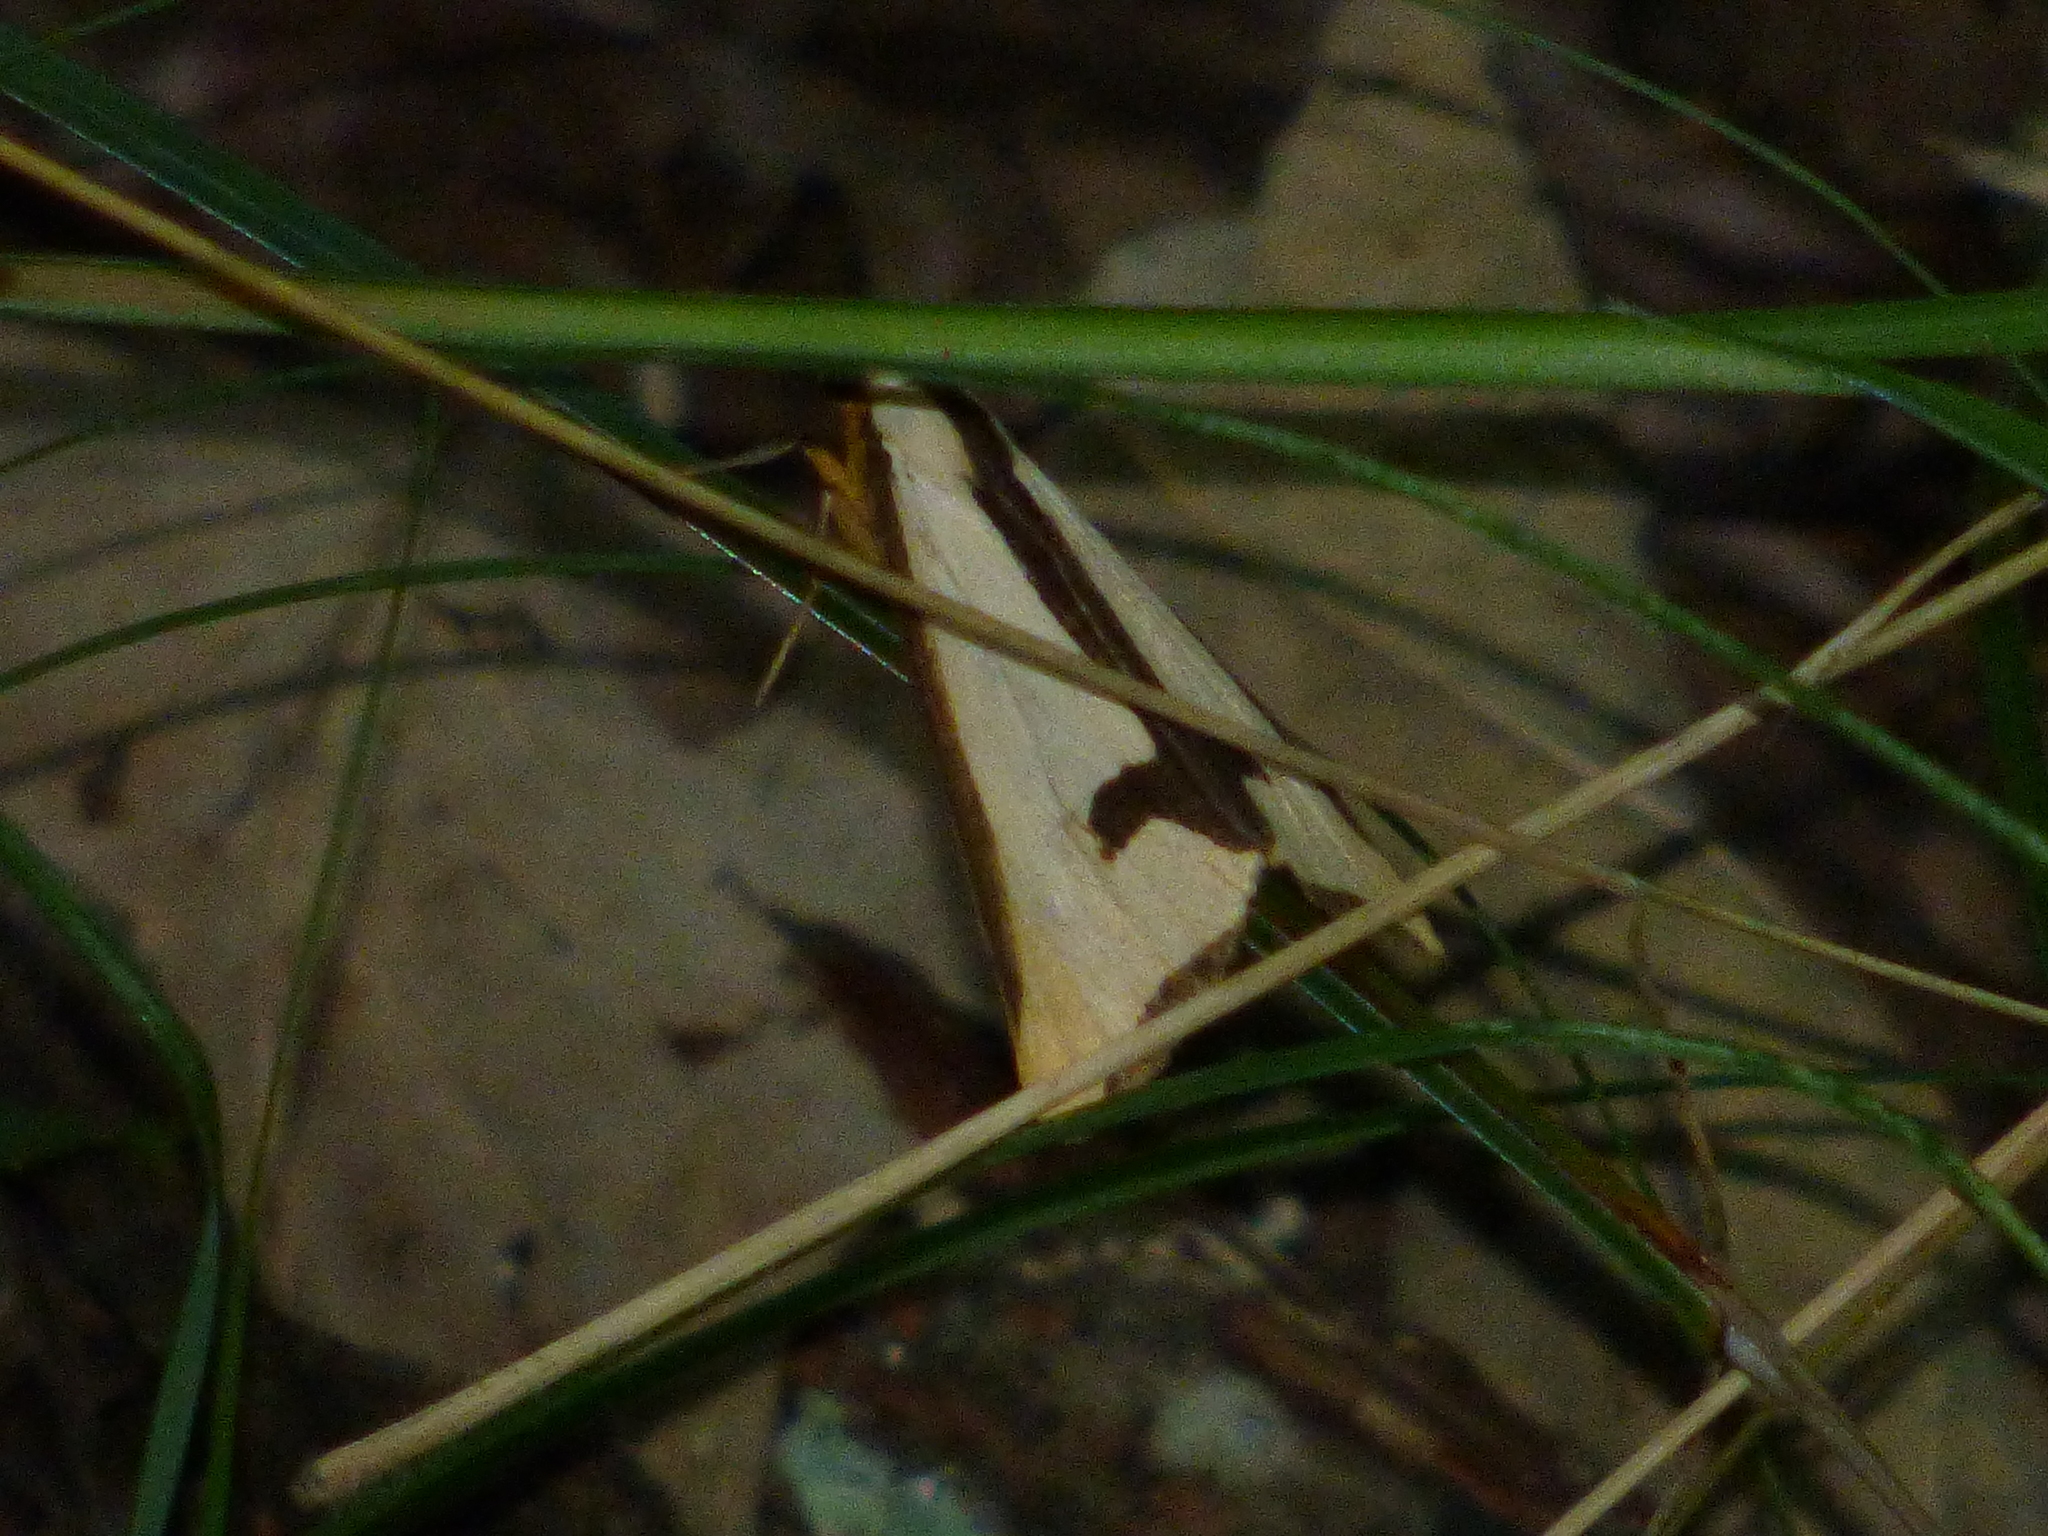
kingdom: Animalia
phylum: Arthropoda
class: Insecta
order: Lepidoptera
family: Erebidae
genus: Haploa
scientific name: Haploa clymene
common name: Clymene moth
